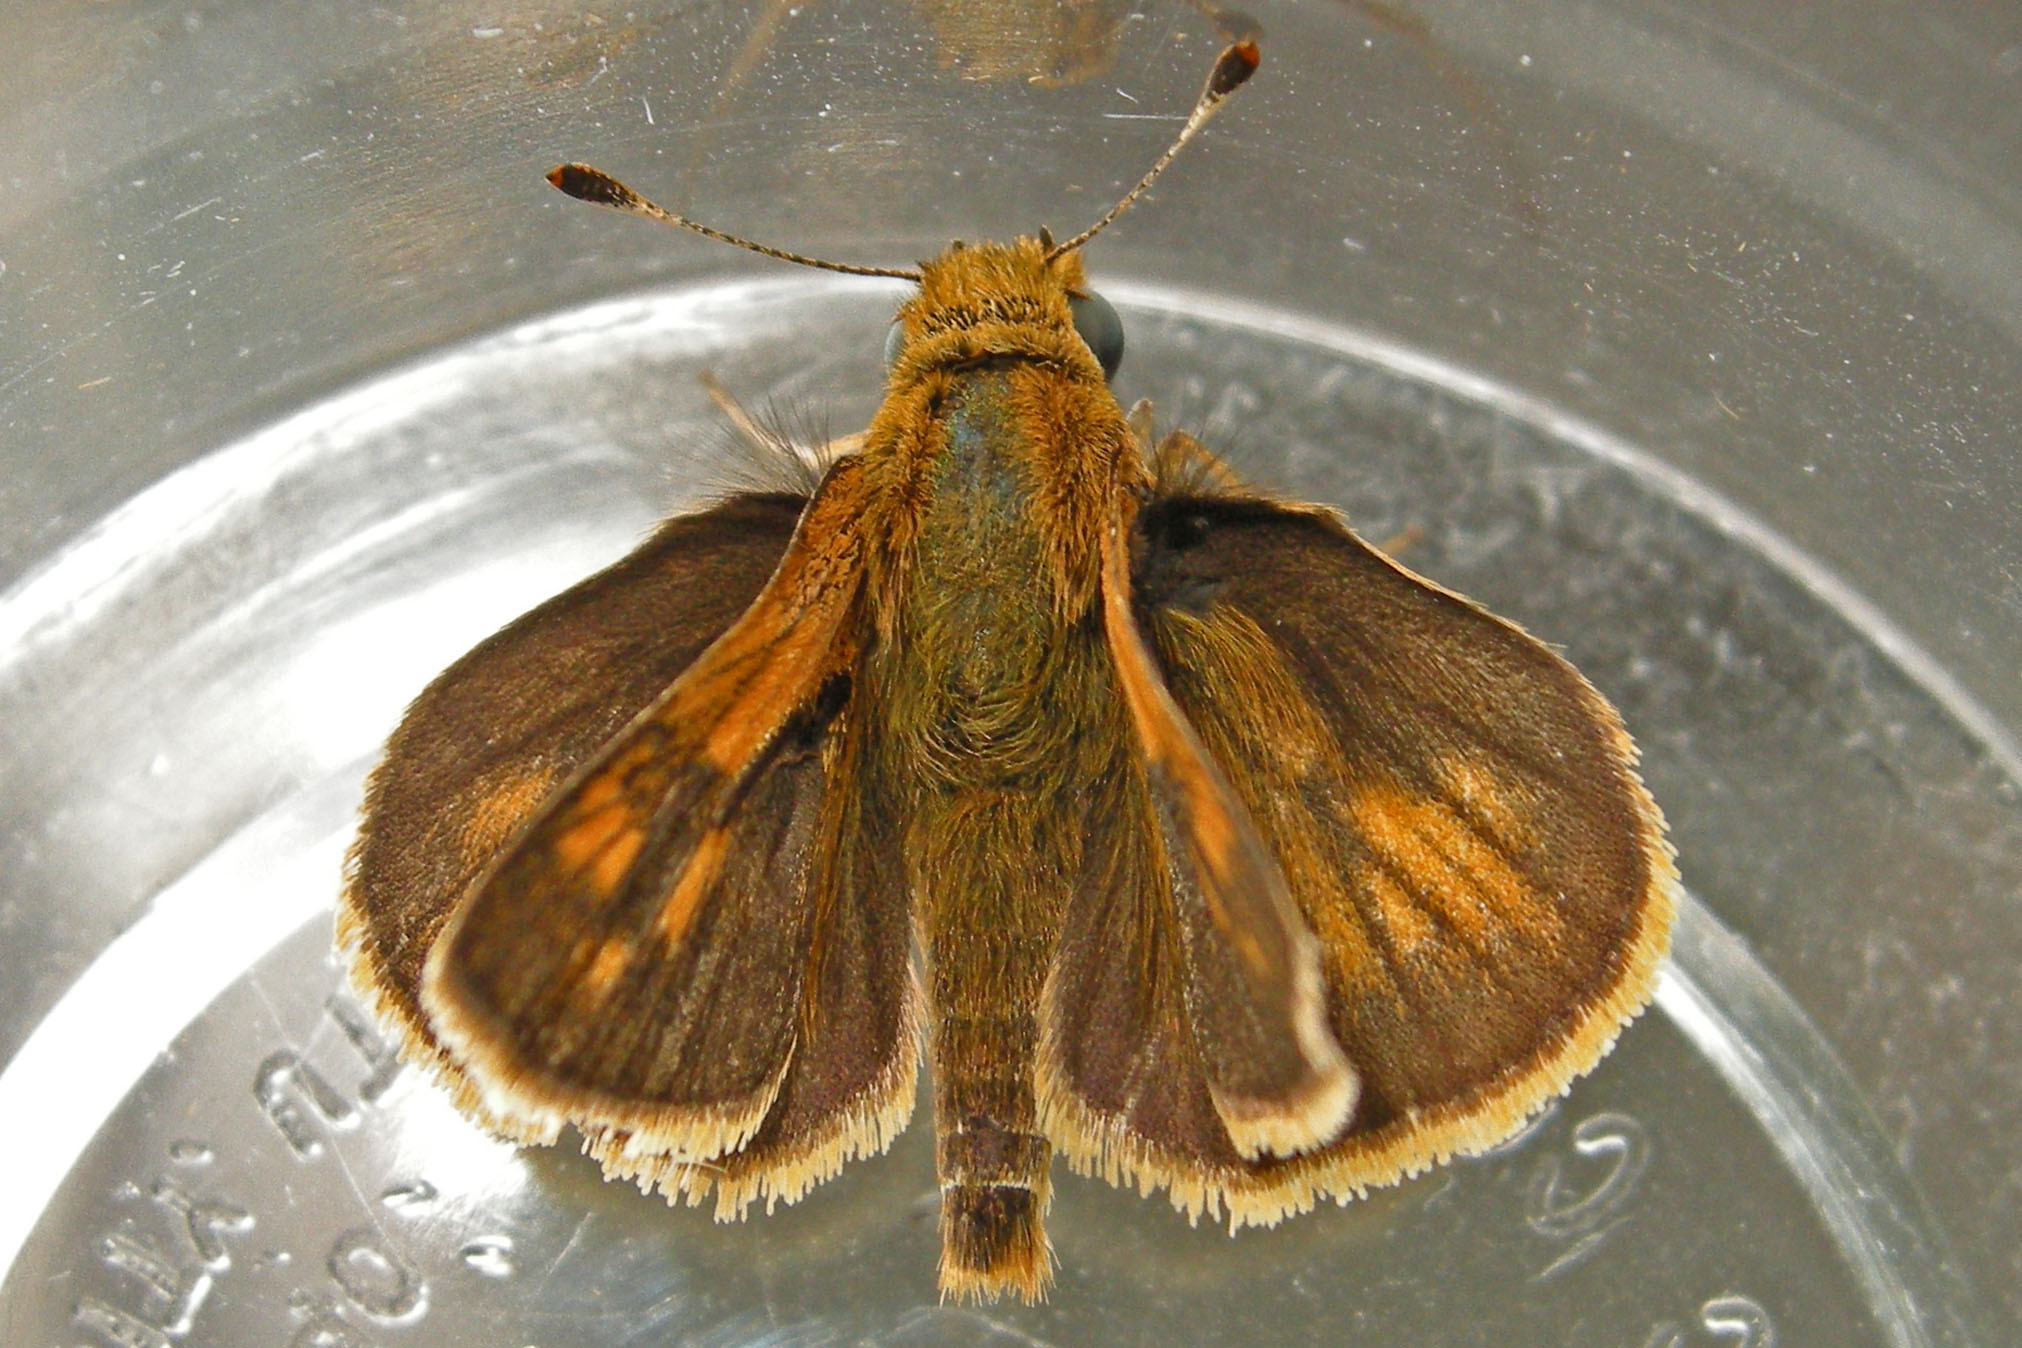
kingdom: Animalia
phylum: Arthropoda
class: Insecta
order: Lepidoptera
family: Hesperiidae
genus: Polites
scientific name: Polites coras
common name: Peck's skipper
